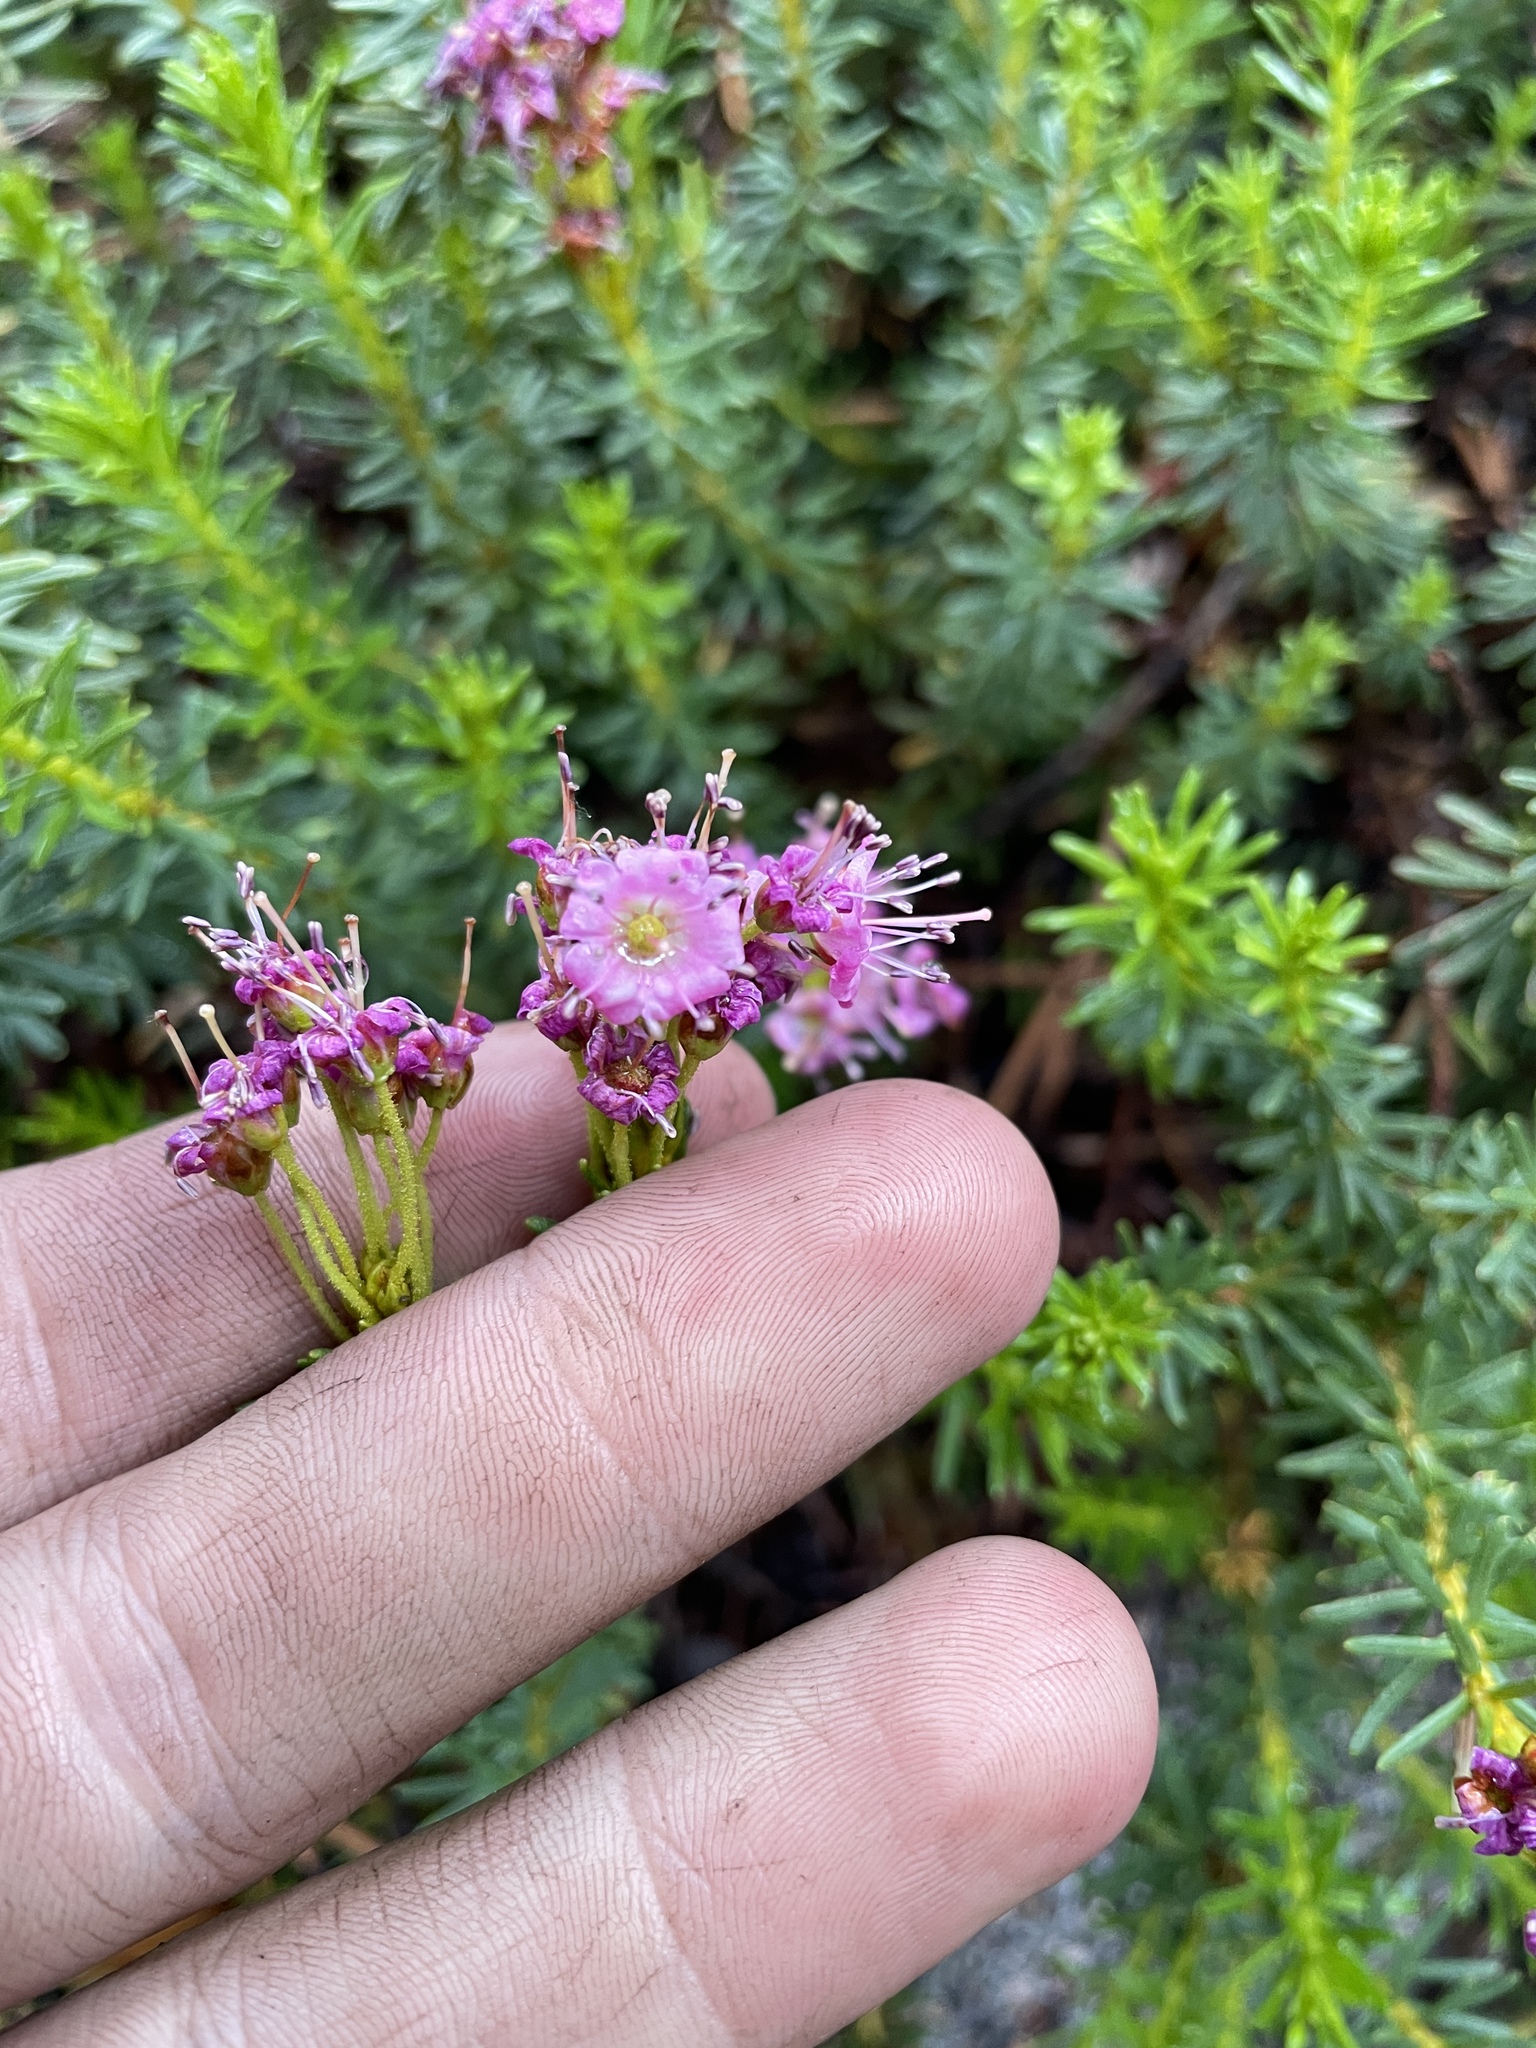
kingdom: Plantae
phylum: Tracheophyta
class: Magnoliopsida
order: Ericales
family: Ericaceae
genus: Phyllodoce
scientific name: Phyllodoce breweri
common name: Brewer's mountain-heather
